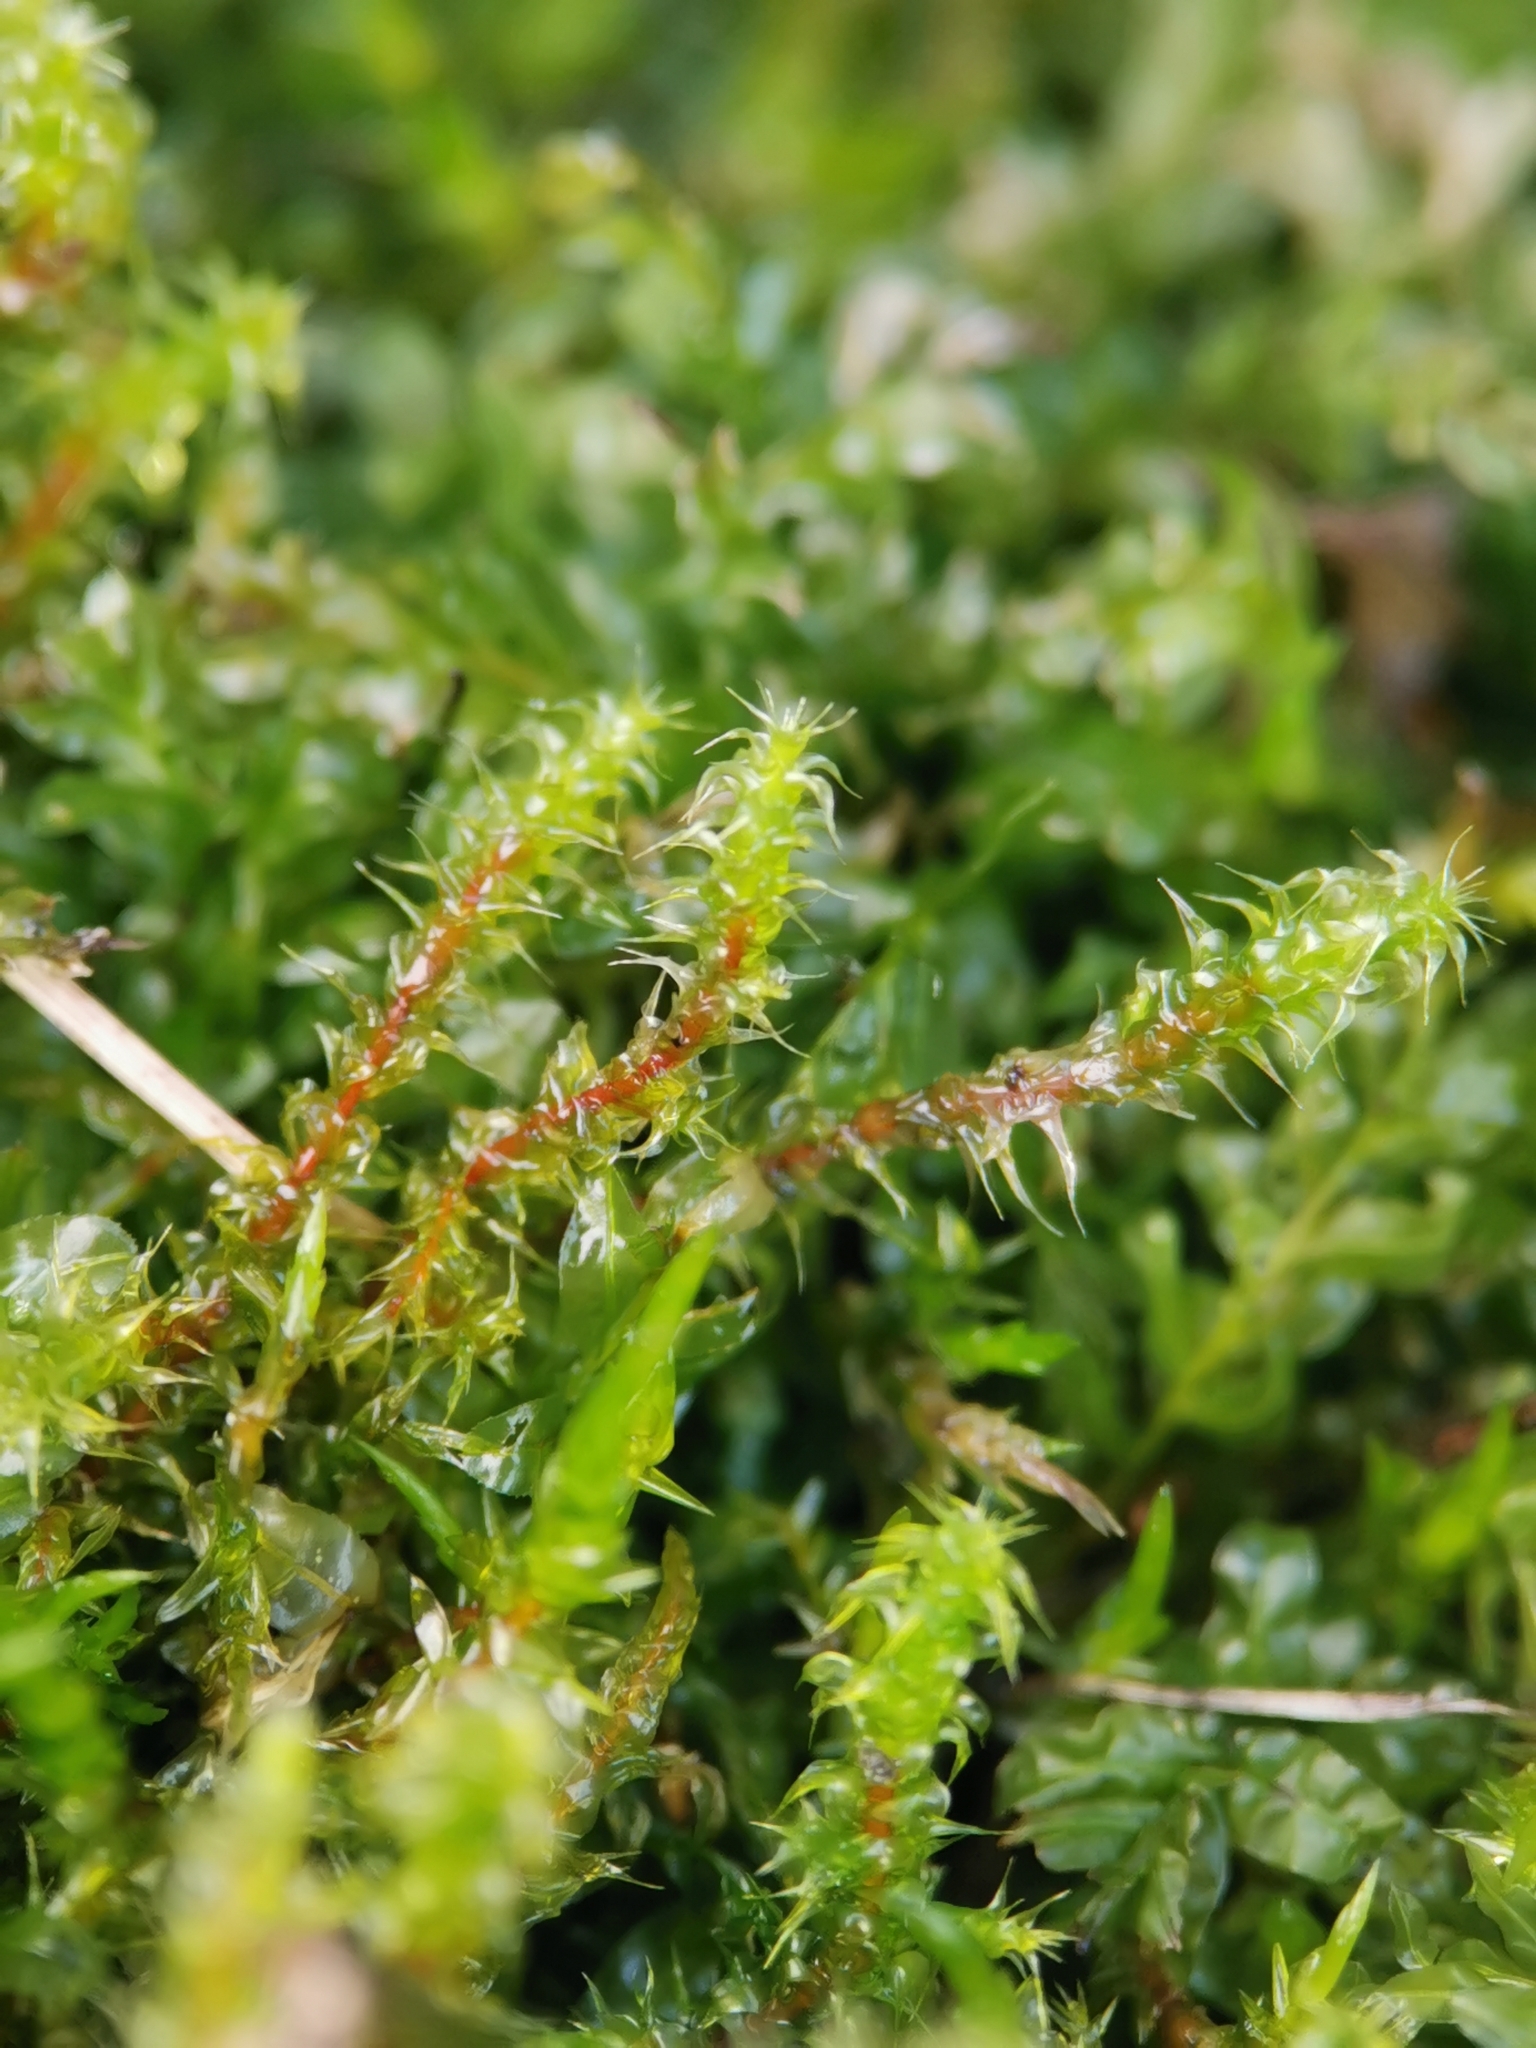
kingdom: Plantae
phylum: Bryophyta
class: Bryopsida
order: Hypnales
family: Hylocomiaceae
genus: Rhytidiadelphus
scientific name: Rhytidiadelphus squarrosus
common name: Springy turf-moss
